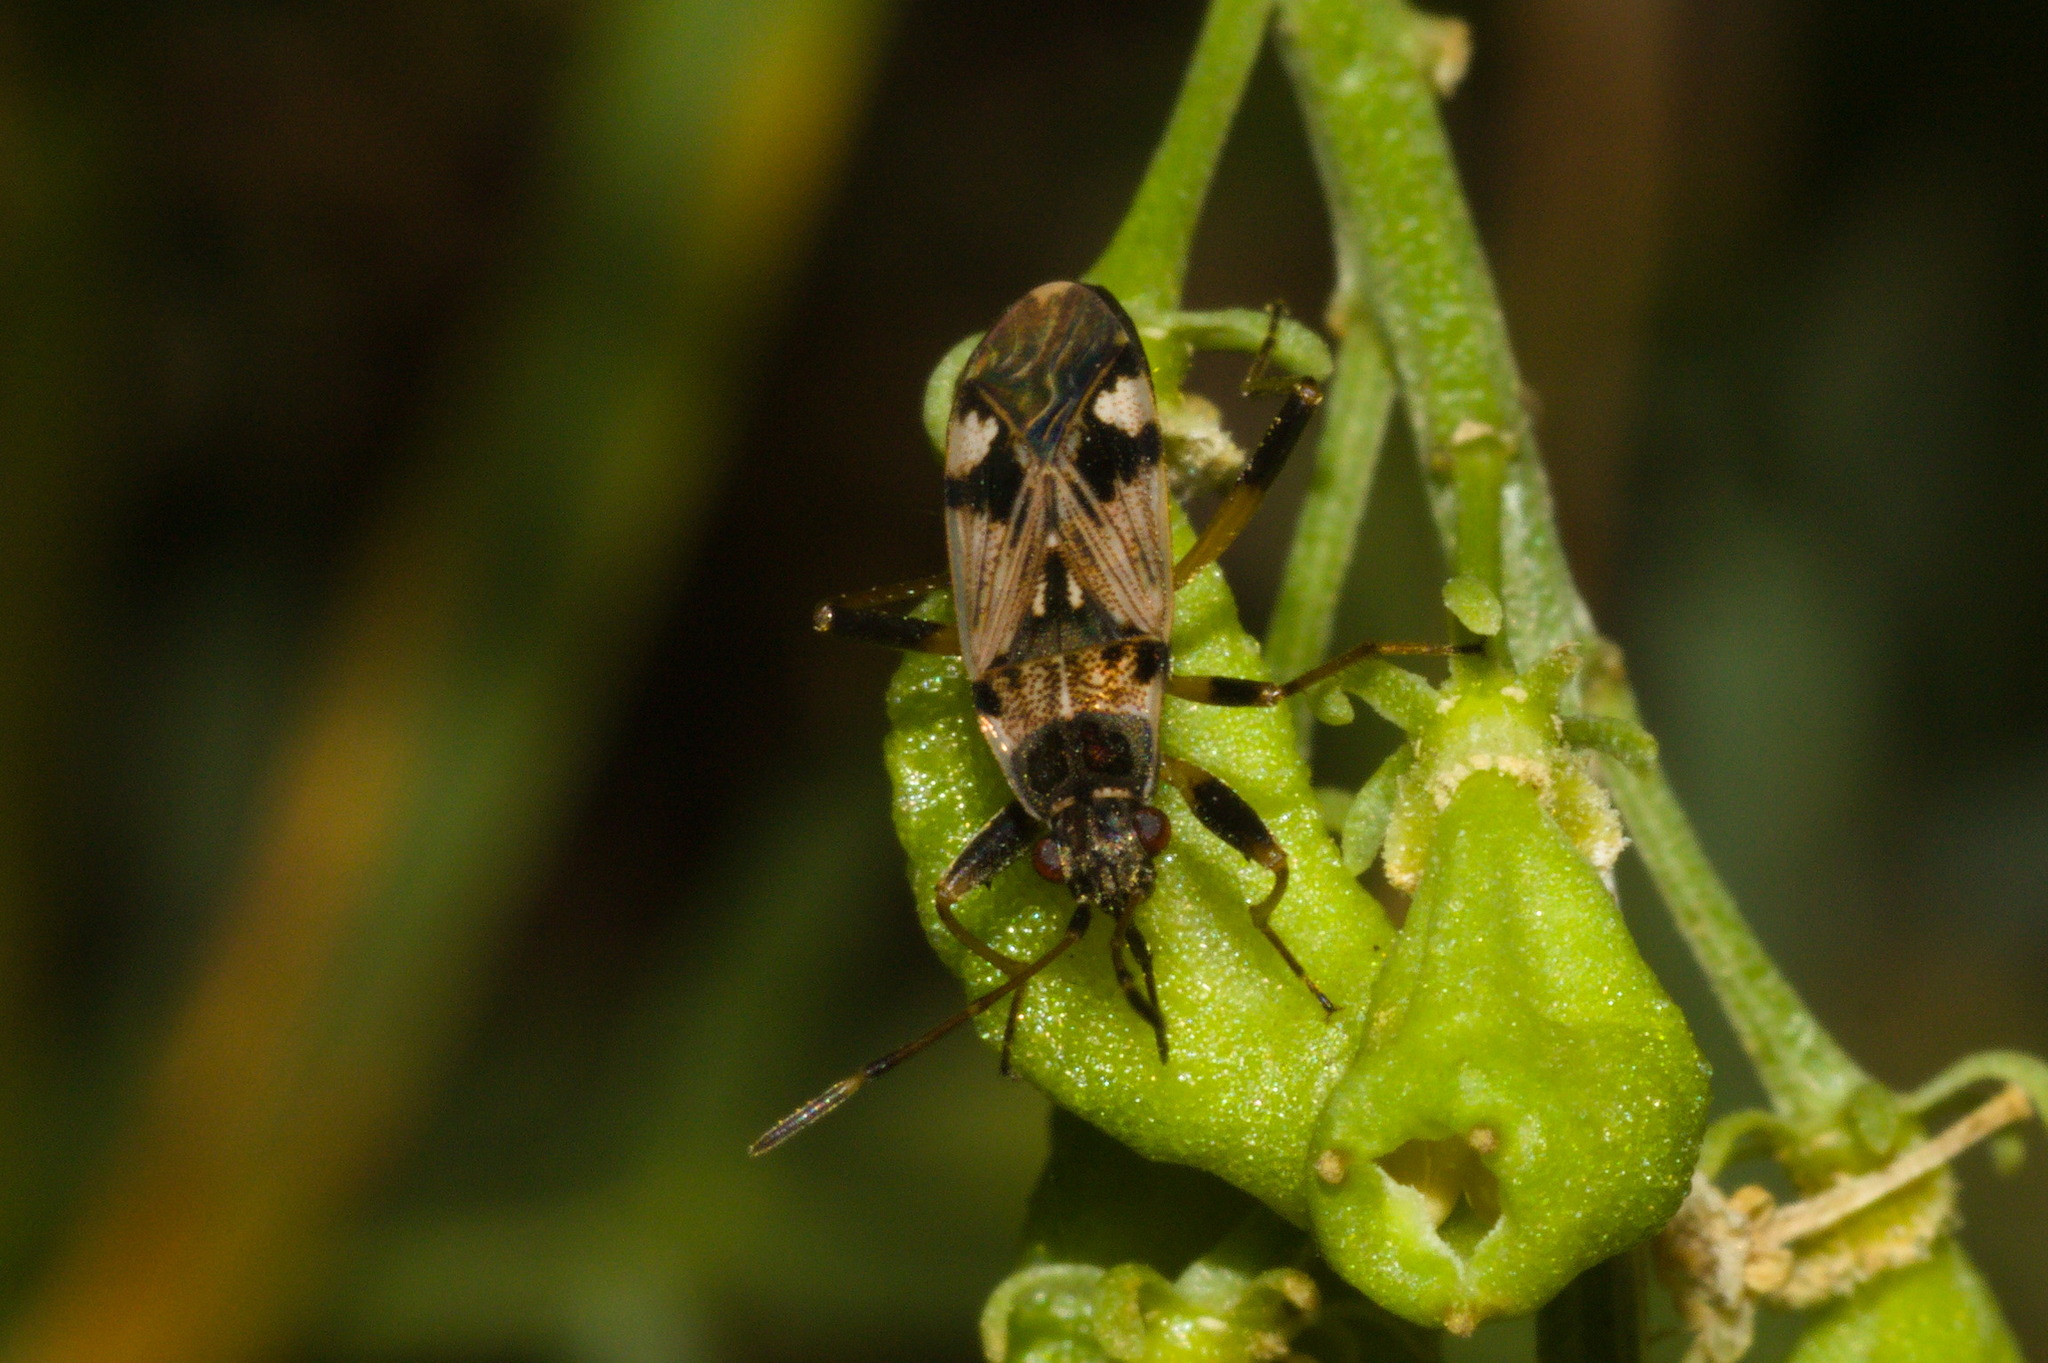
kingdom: Animalia
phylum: Arthropoda
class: Insecta
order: Hemiptera
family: Rhyparochromidae
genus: Beosus
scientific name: Beosus maritimus
